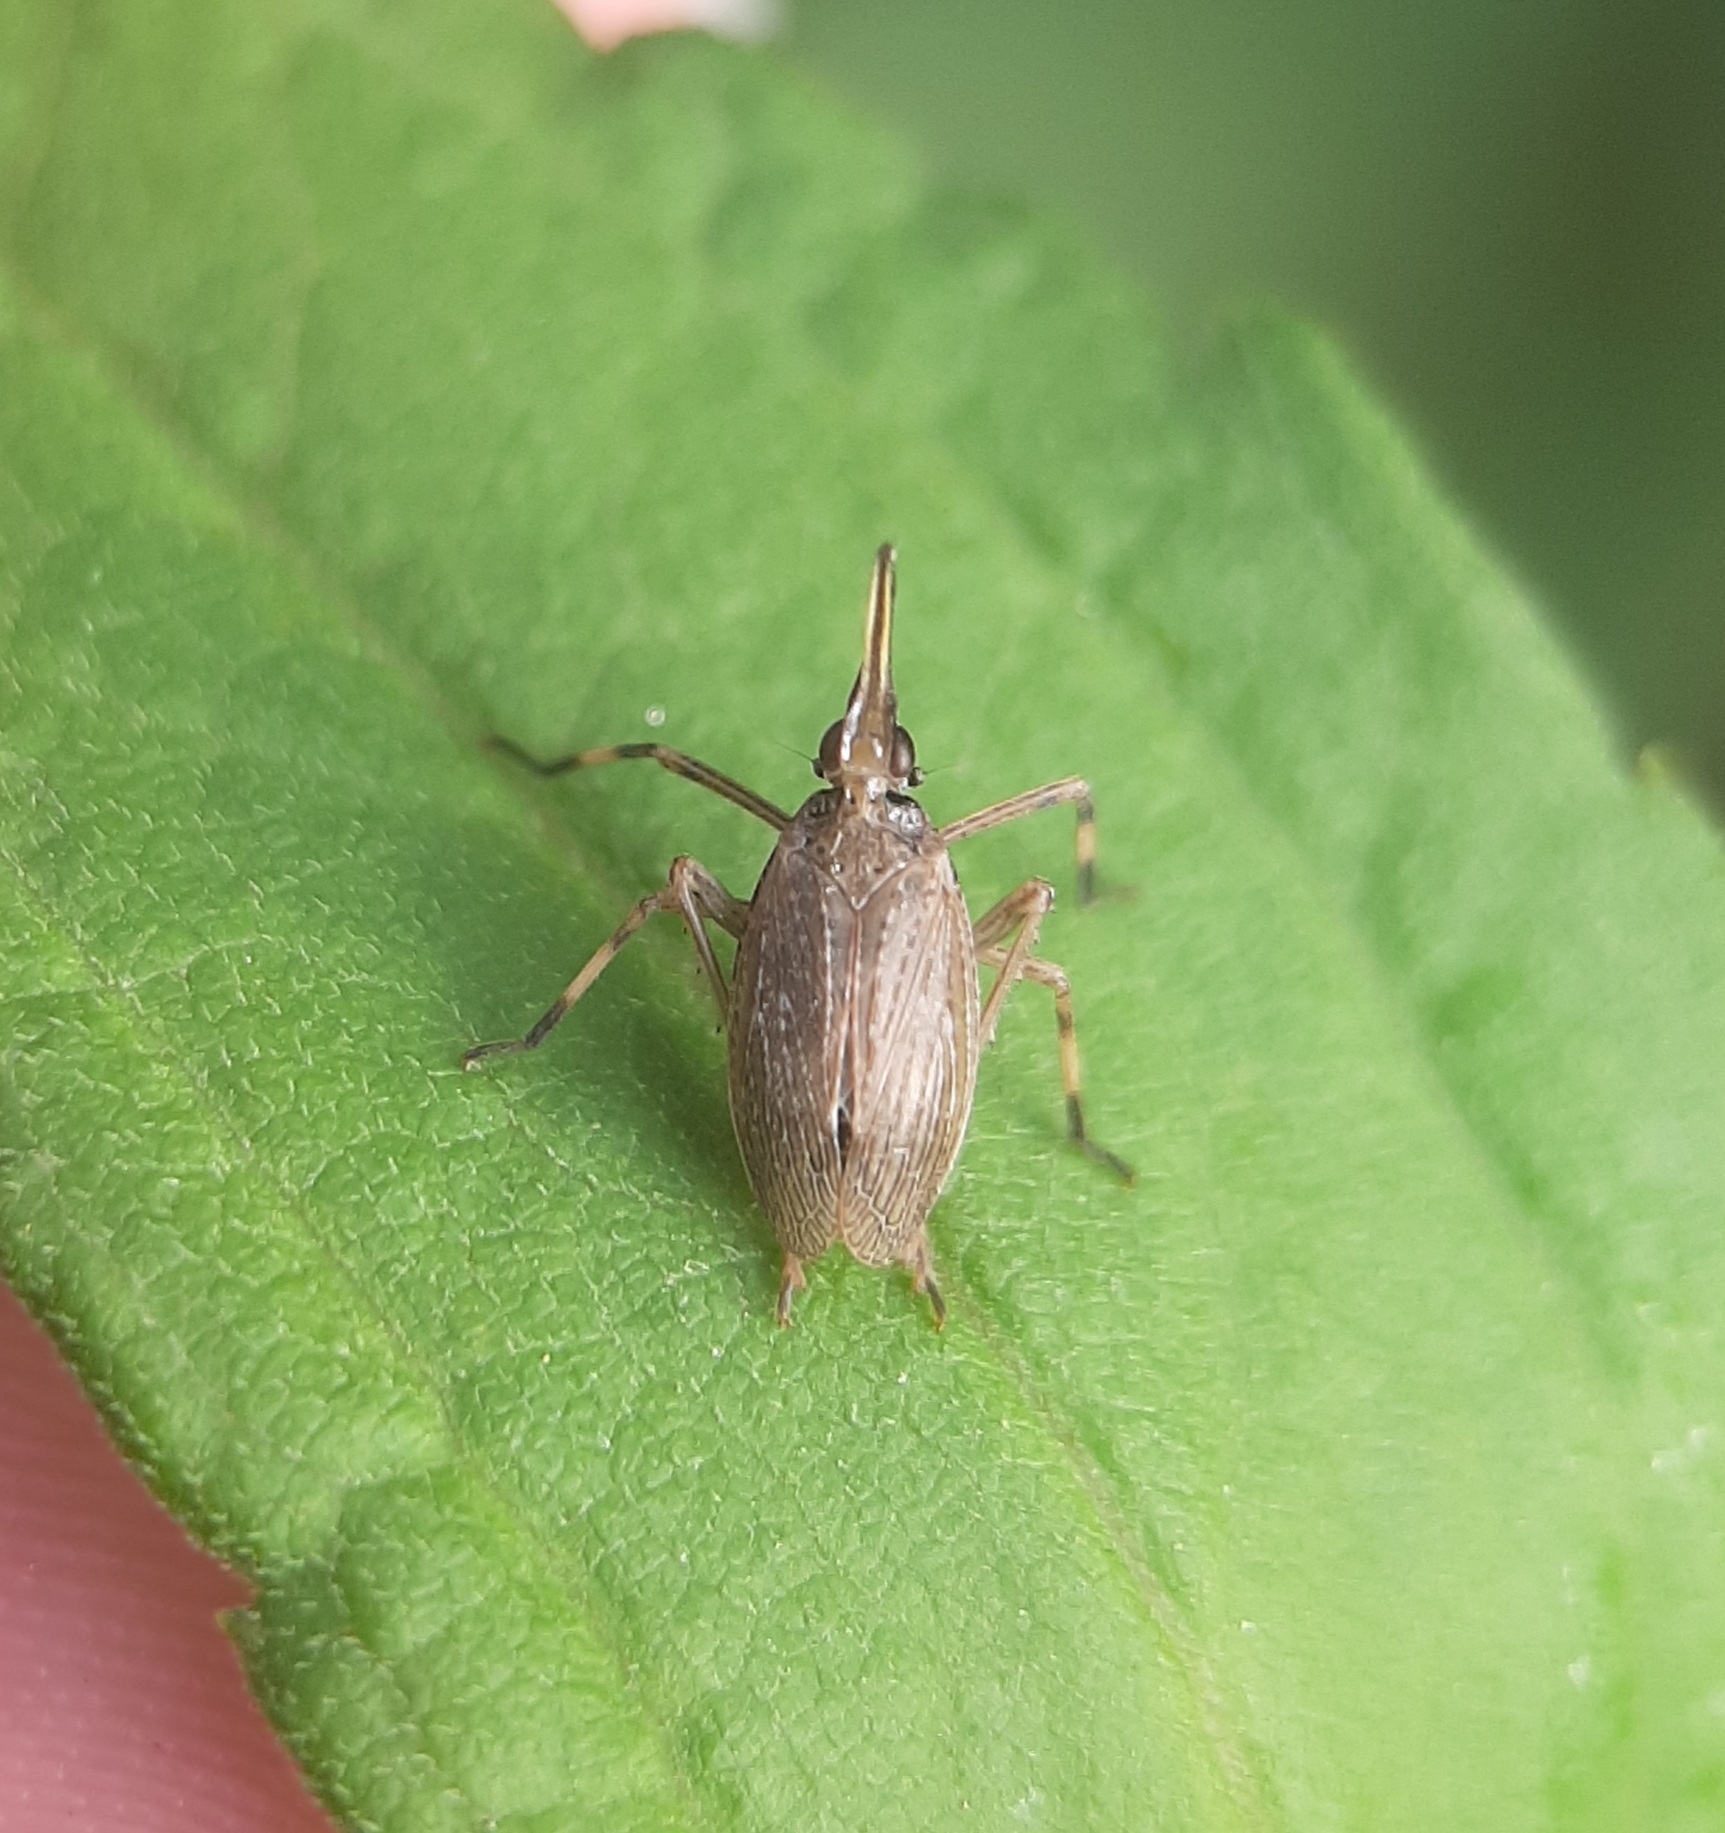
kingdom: Animalia
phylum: Arthropoda
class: Insecta
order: Hemiptera
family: Dictyopharidae
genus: Scolops
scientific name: Scolops sulcipes
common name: Partridge planthopper
